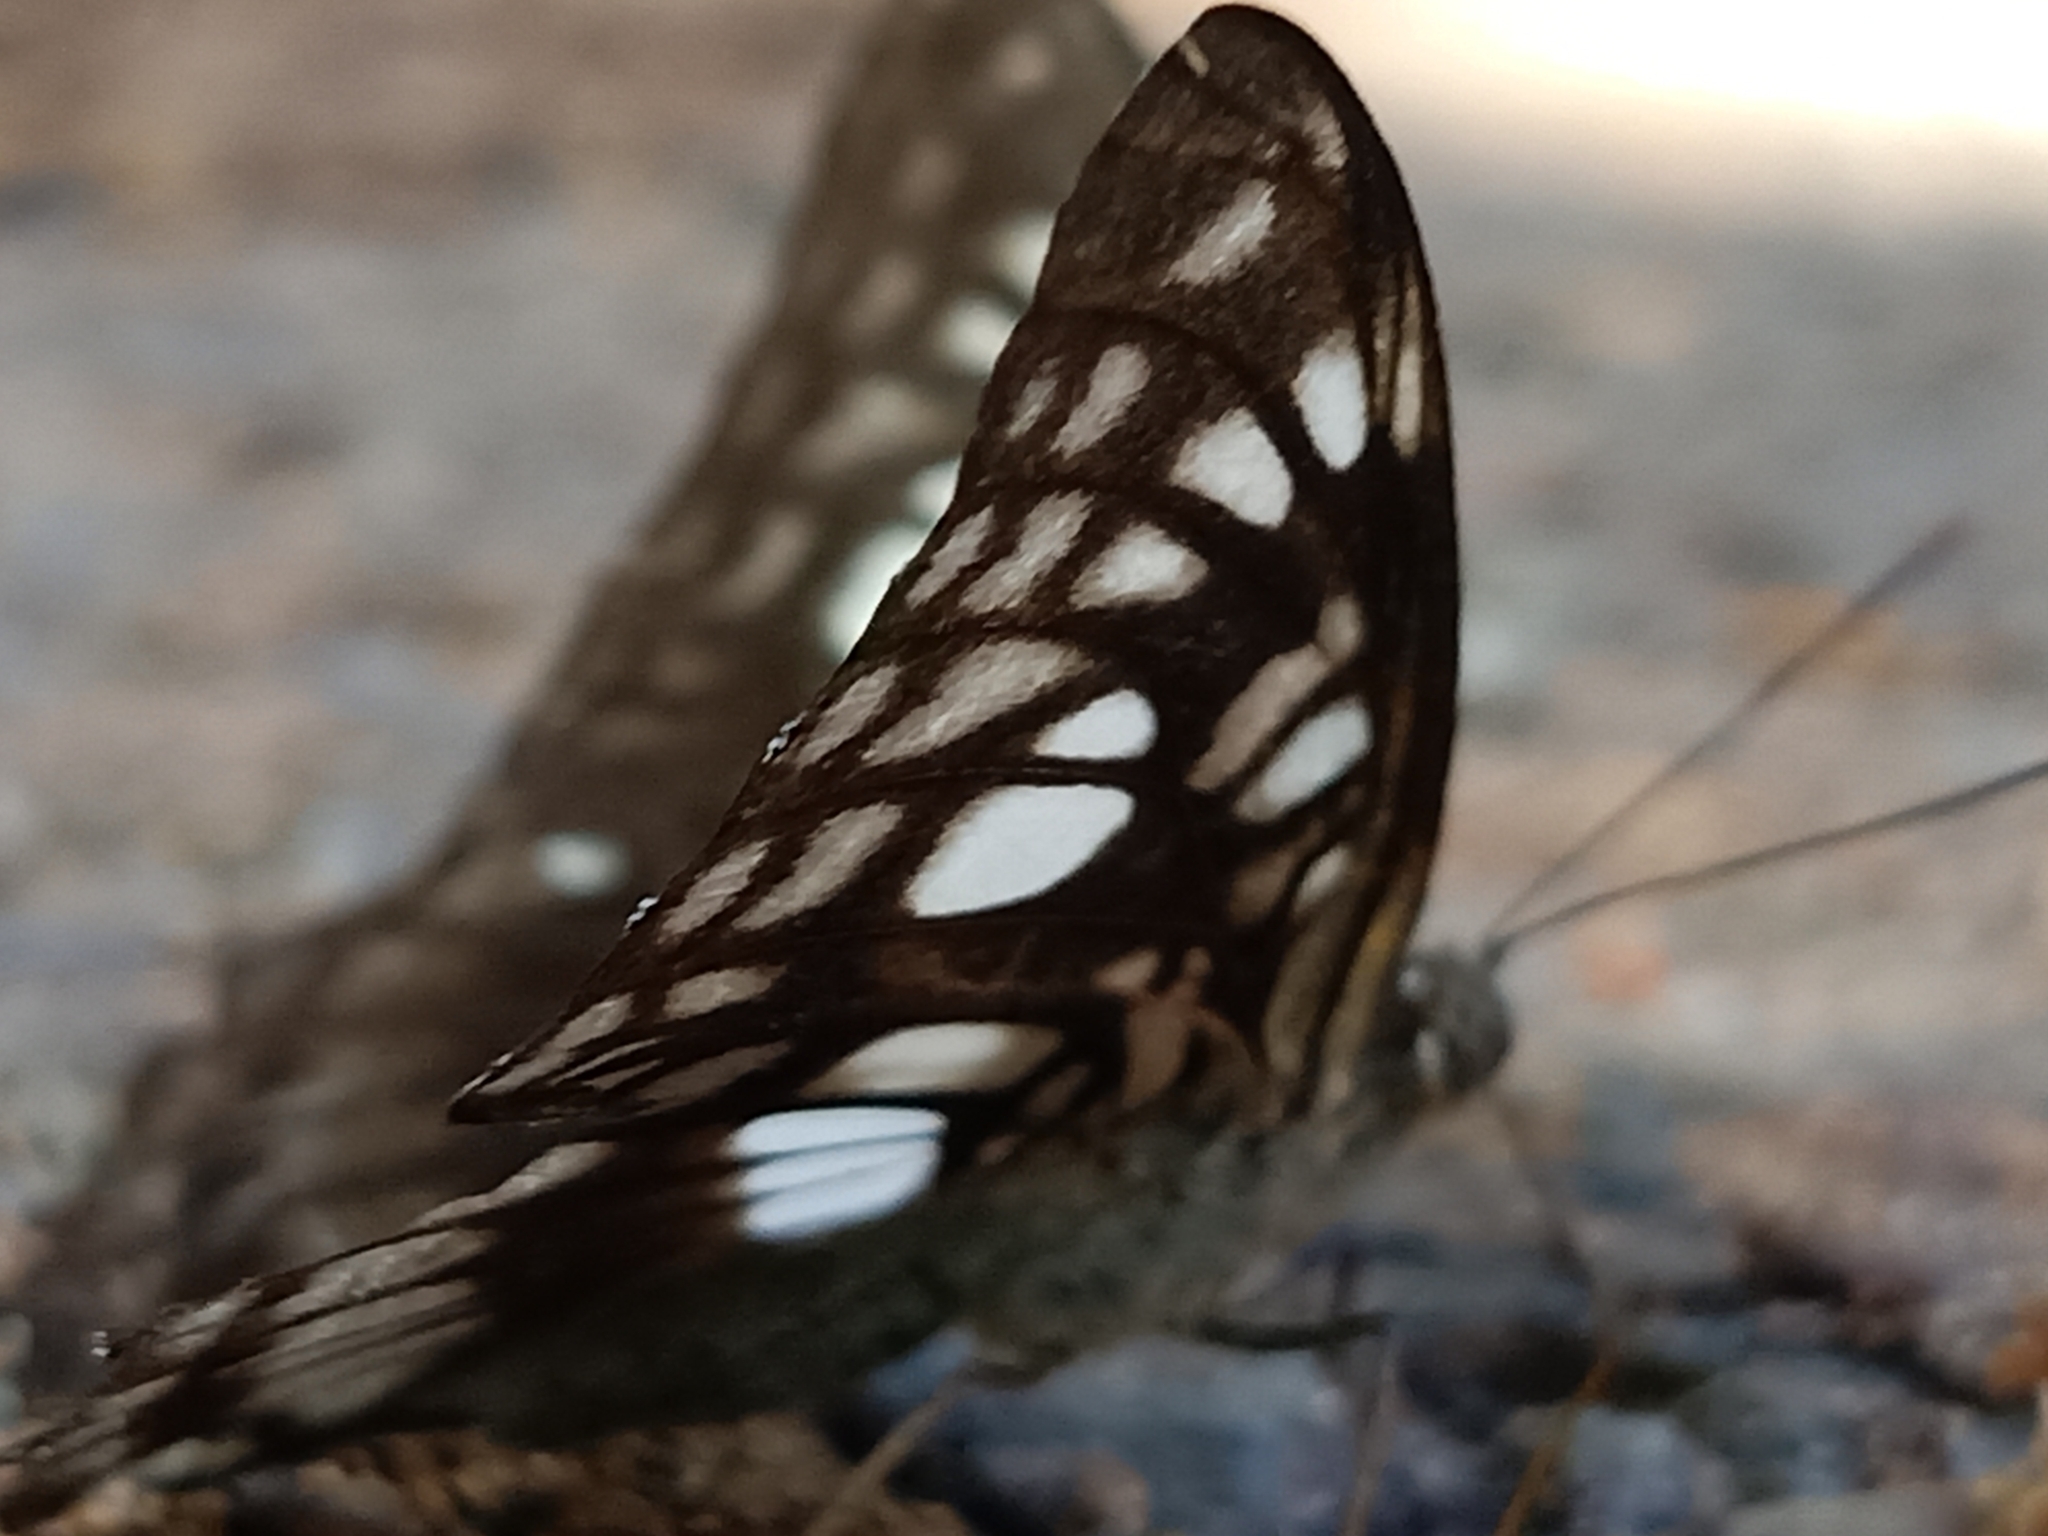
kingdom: Animalia
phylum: Arthropoda
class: Insecta
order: Lepidoptera
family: Nymphalidae
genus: Parathyma
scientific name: Parathyma ranga
